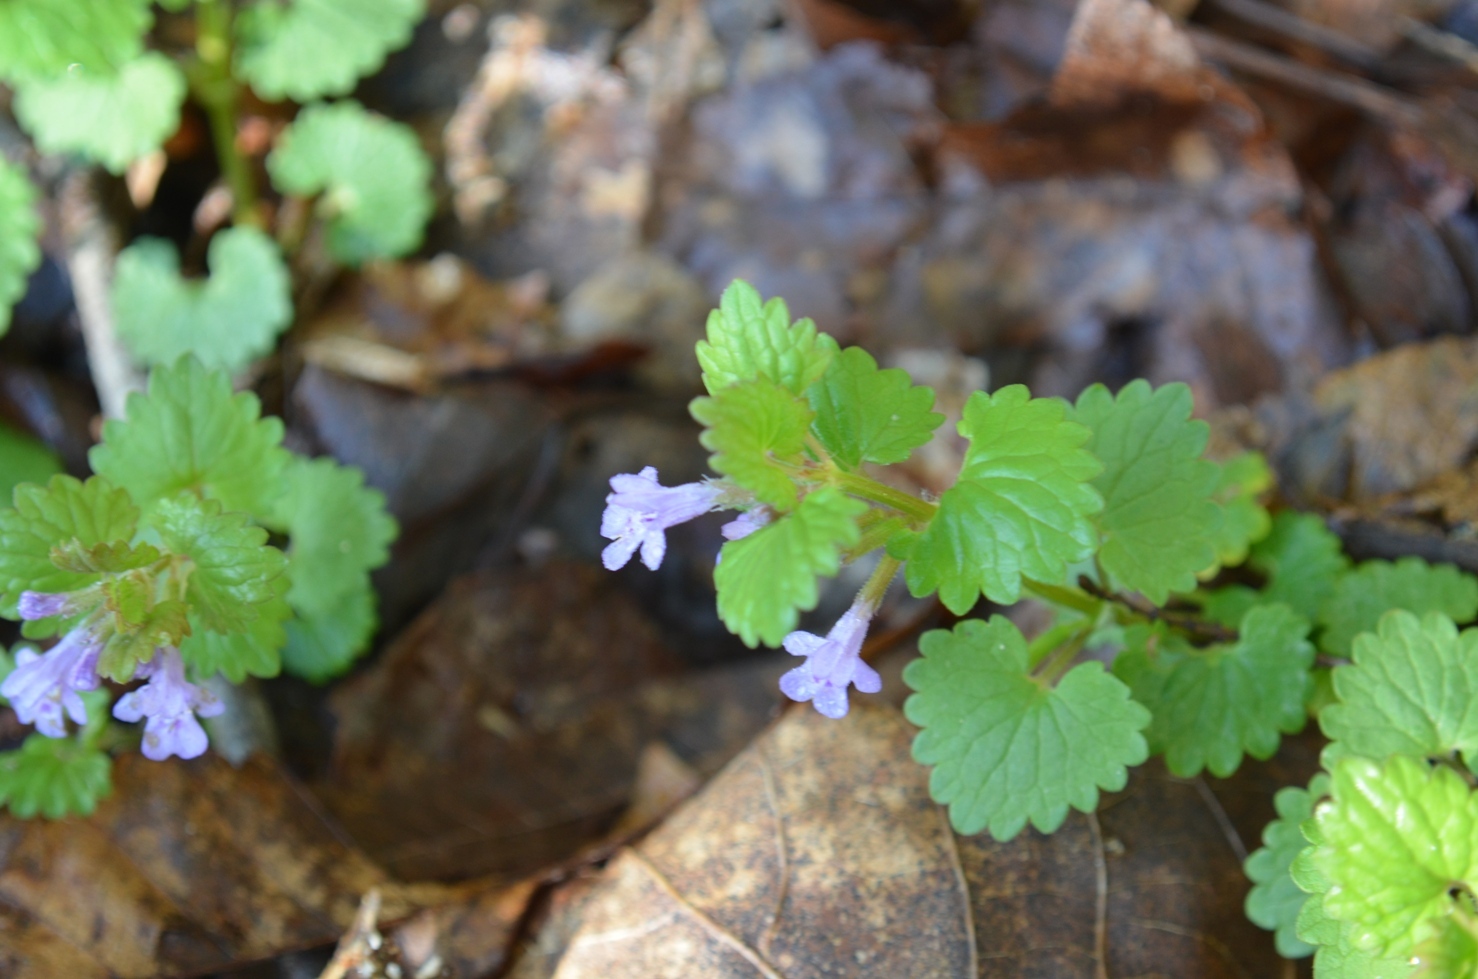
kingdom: Plantae
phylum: Tracheophyta
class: Magnoliopsida
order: Lamiales
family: Lamiaceae
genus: Glechoma
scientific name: Glechoma hederacea
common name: Ground ivy
